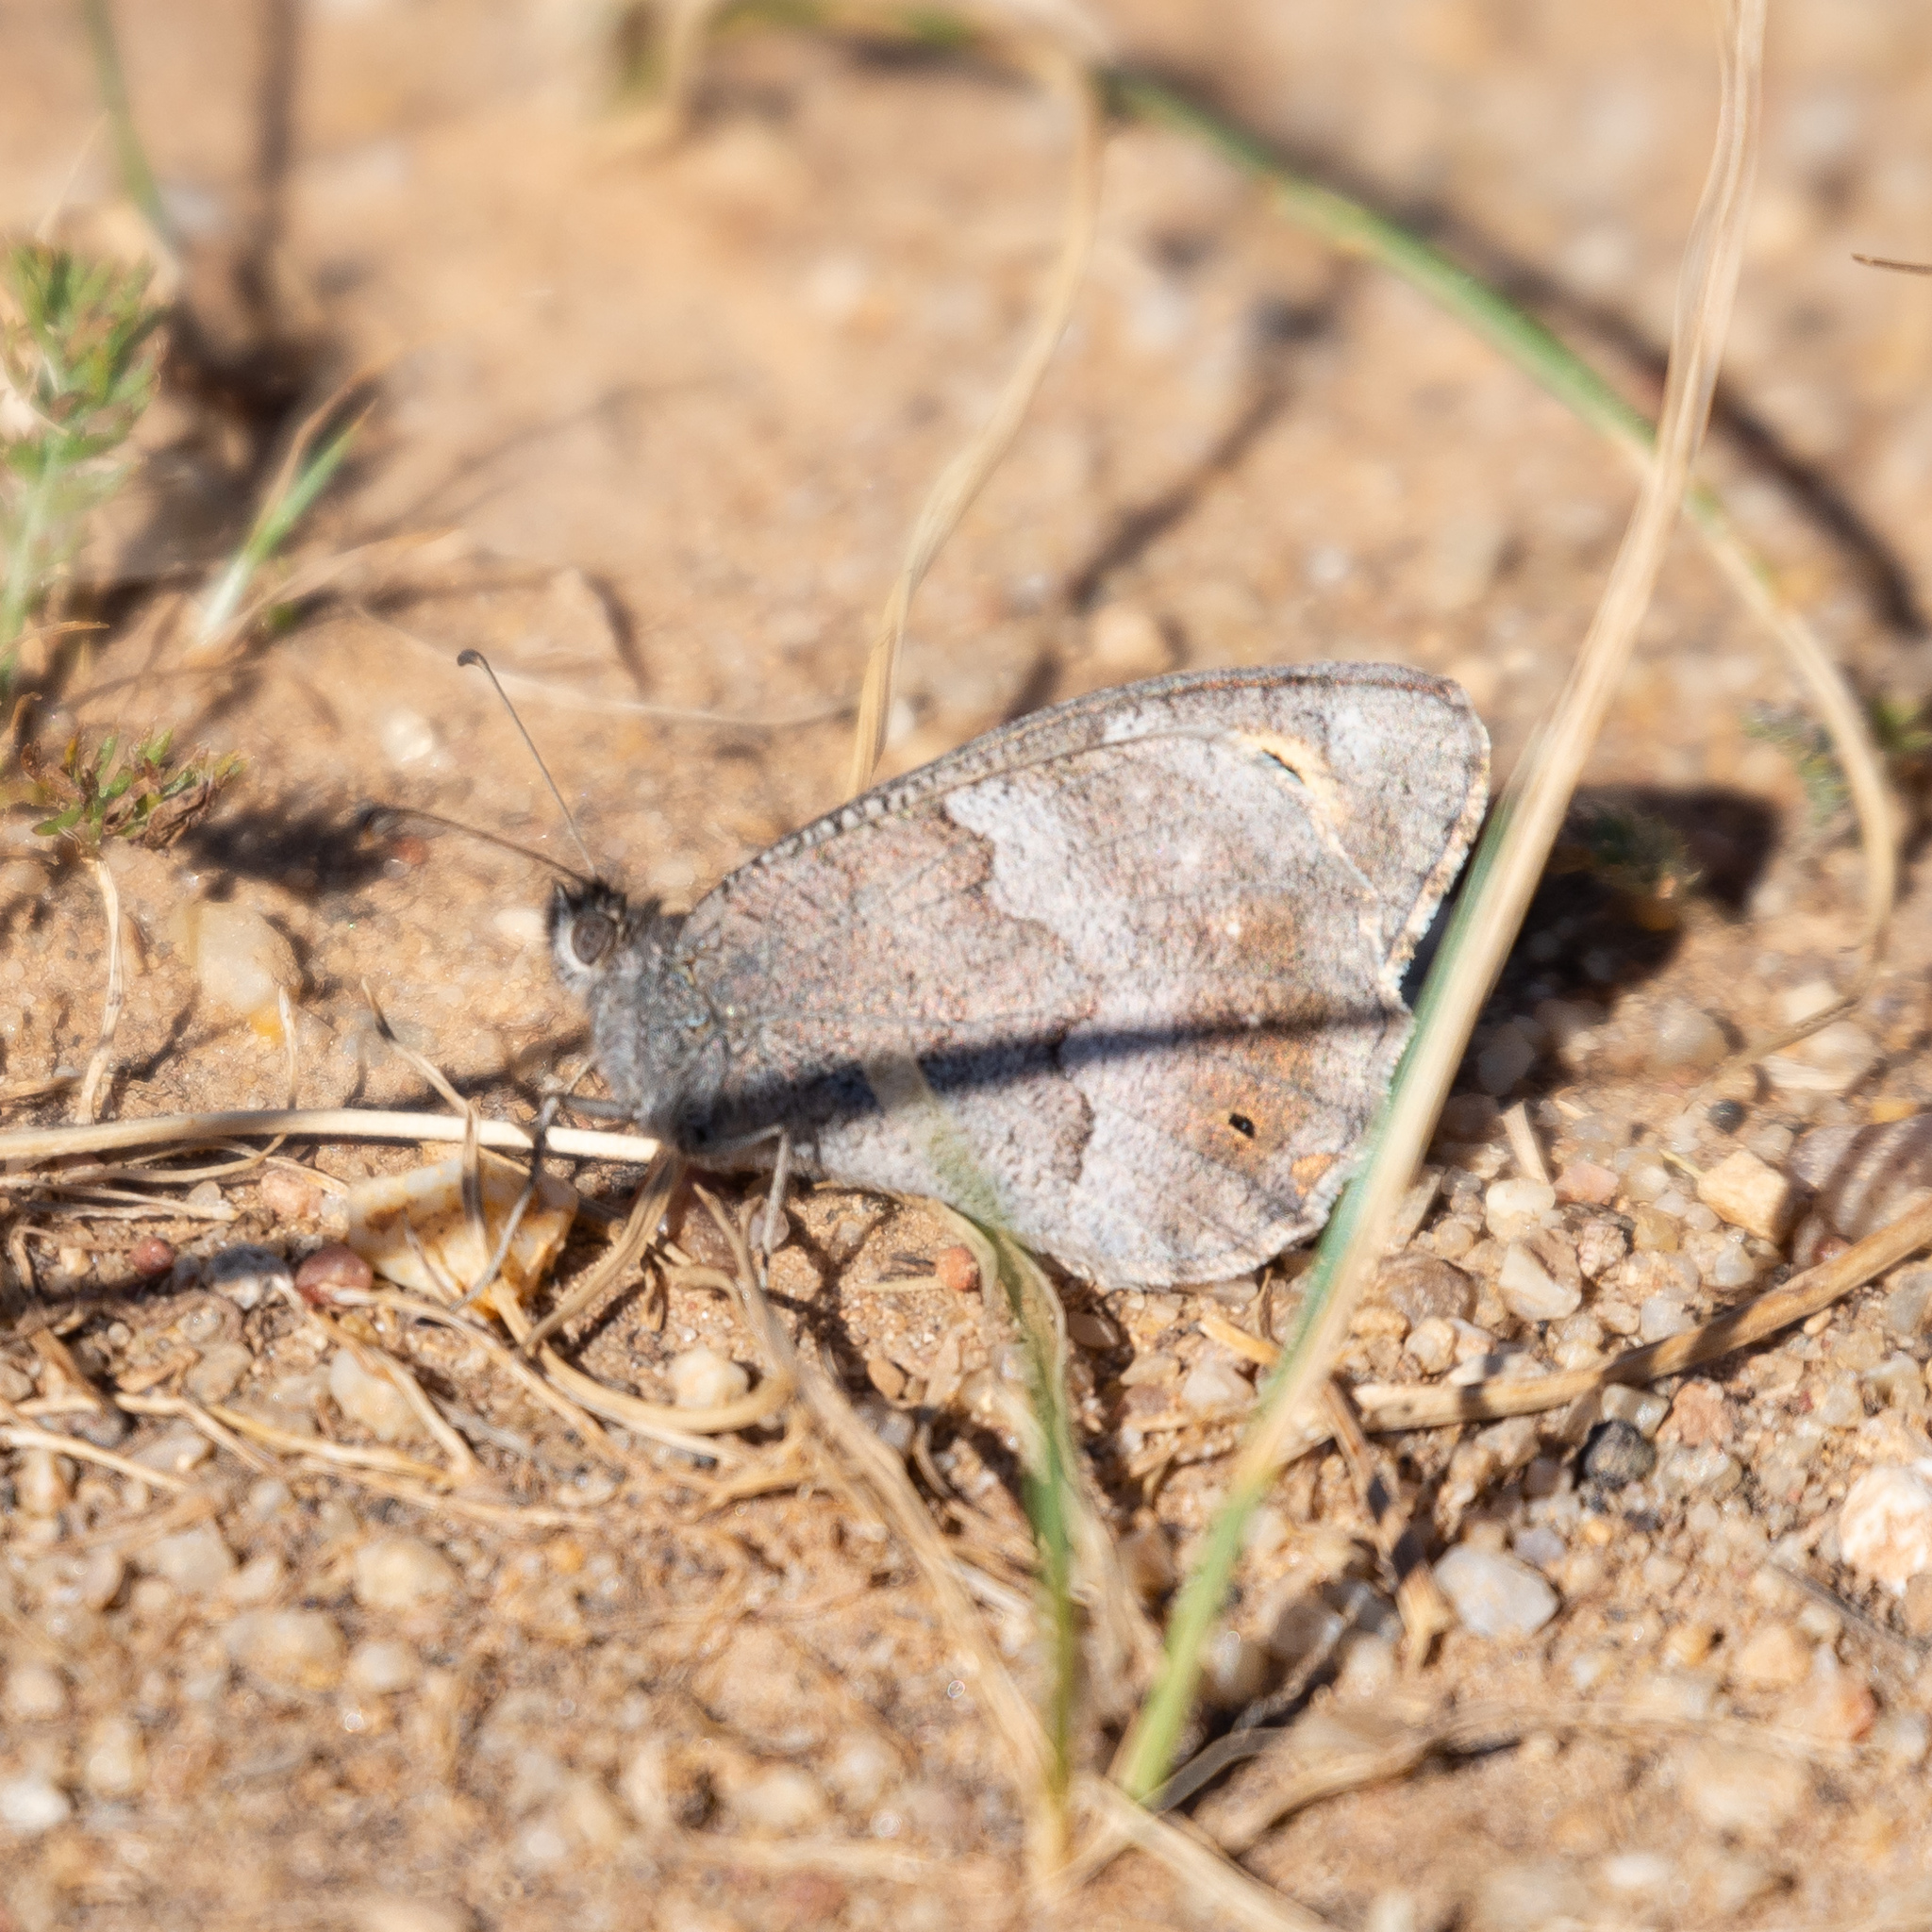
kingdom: Animalia
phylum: Arthropoda
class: Insecta
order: Lepidoptera
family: Nymphalidae
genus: Hipparchia
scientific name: Hipparchia statilinus
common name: Tree grayling
